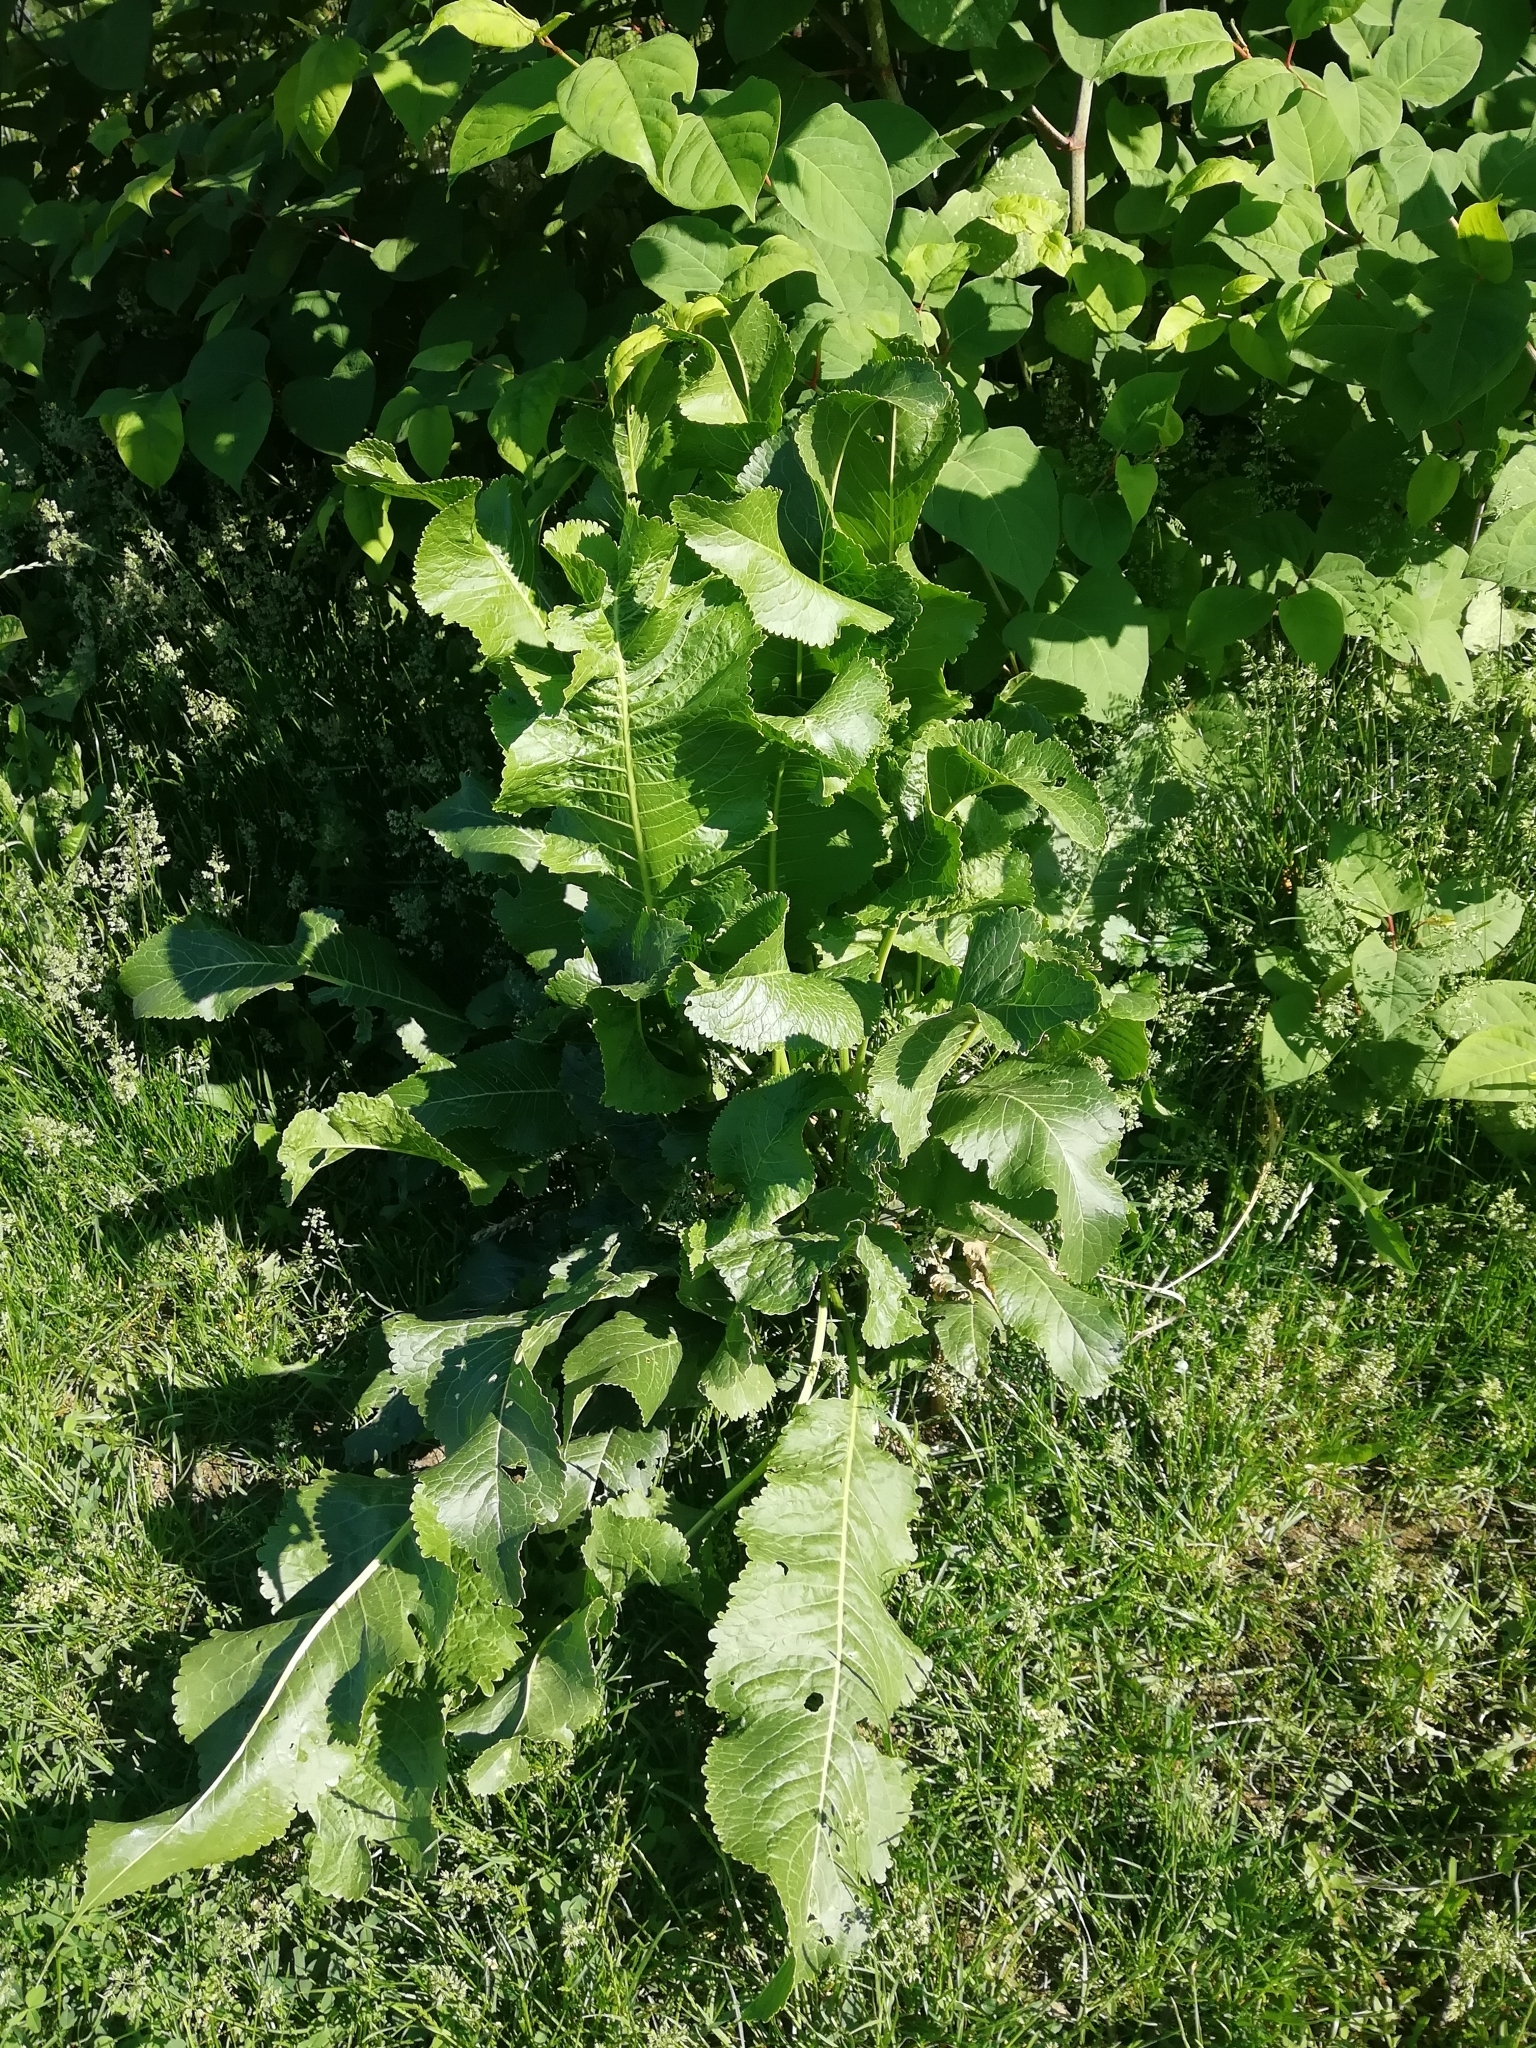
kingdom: Plantae
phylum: Tracheophyta
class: Magnoliopsida
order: Brassicales
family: Brassicaceae
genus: Armoracia
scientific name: Armoracia rusticana
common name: Horseradish
